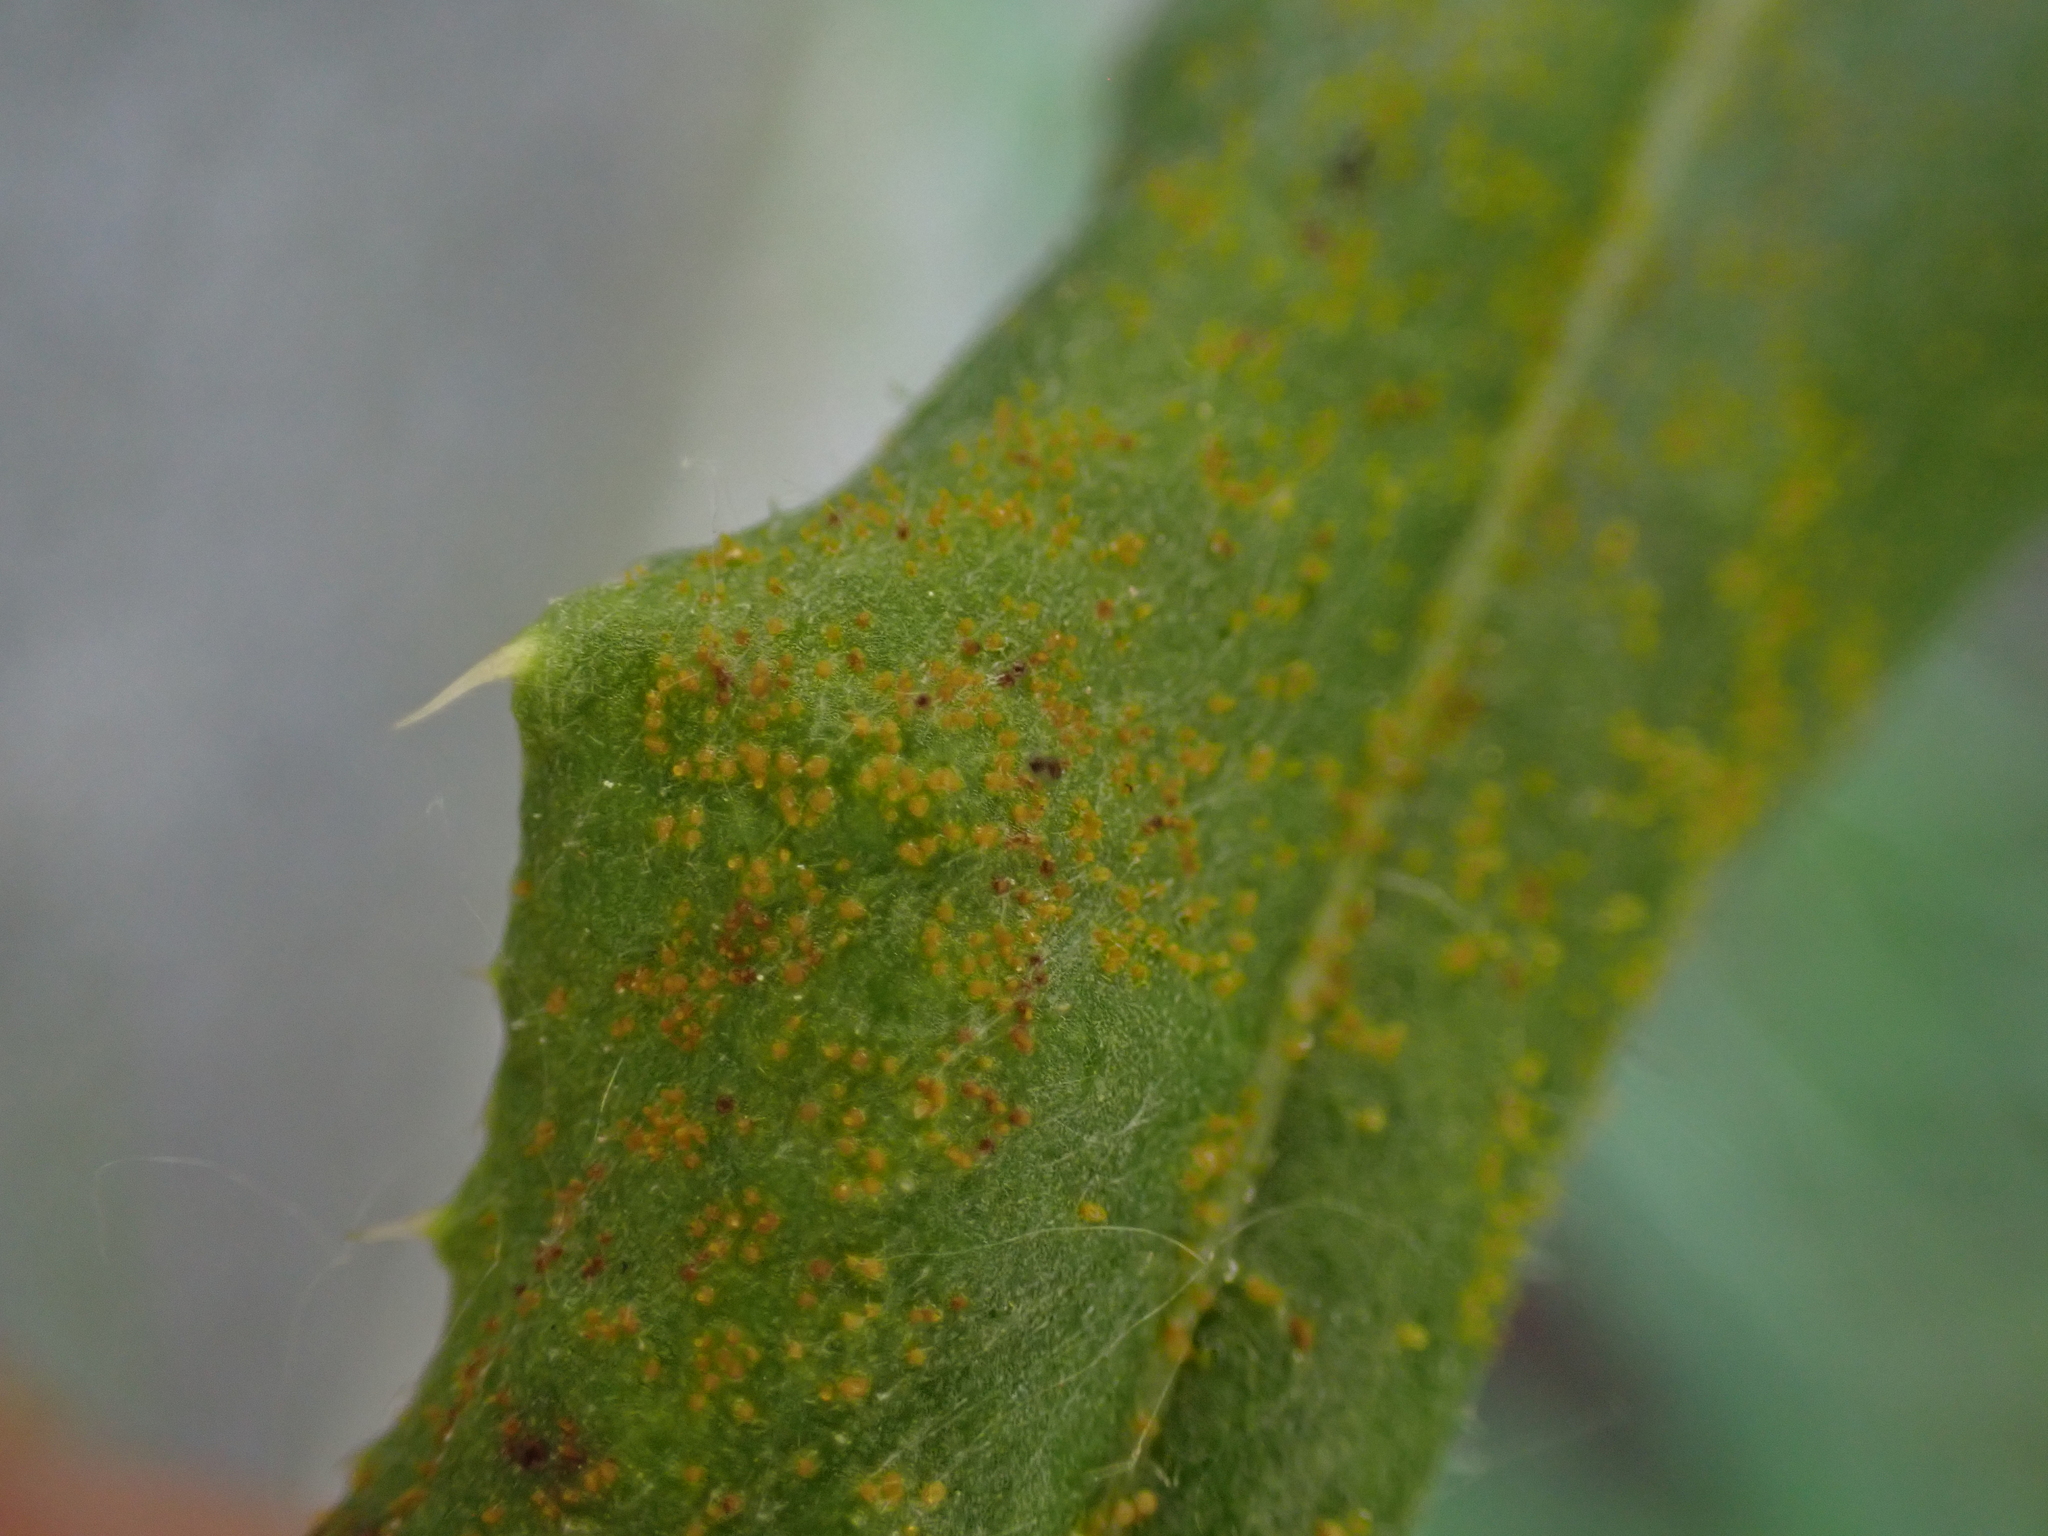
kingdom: Fungi
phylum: Basidiomycota
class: Pucciniomycetes
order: Pucciniales
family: Pucciniaceae
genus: Puccinia
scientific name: Puccinia suaveolens
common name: Thistle rust
